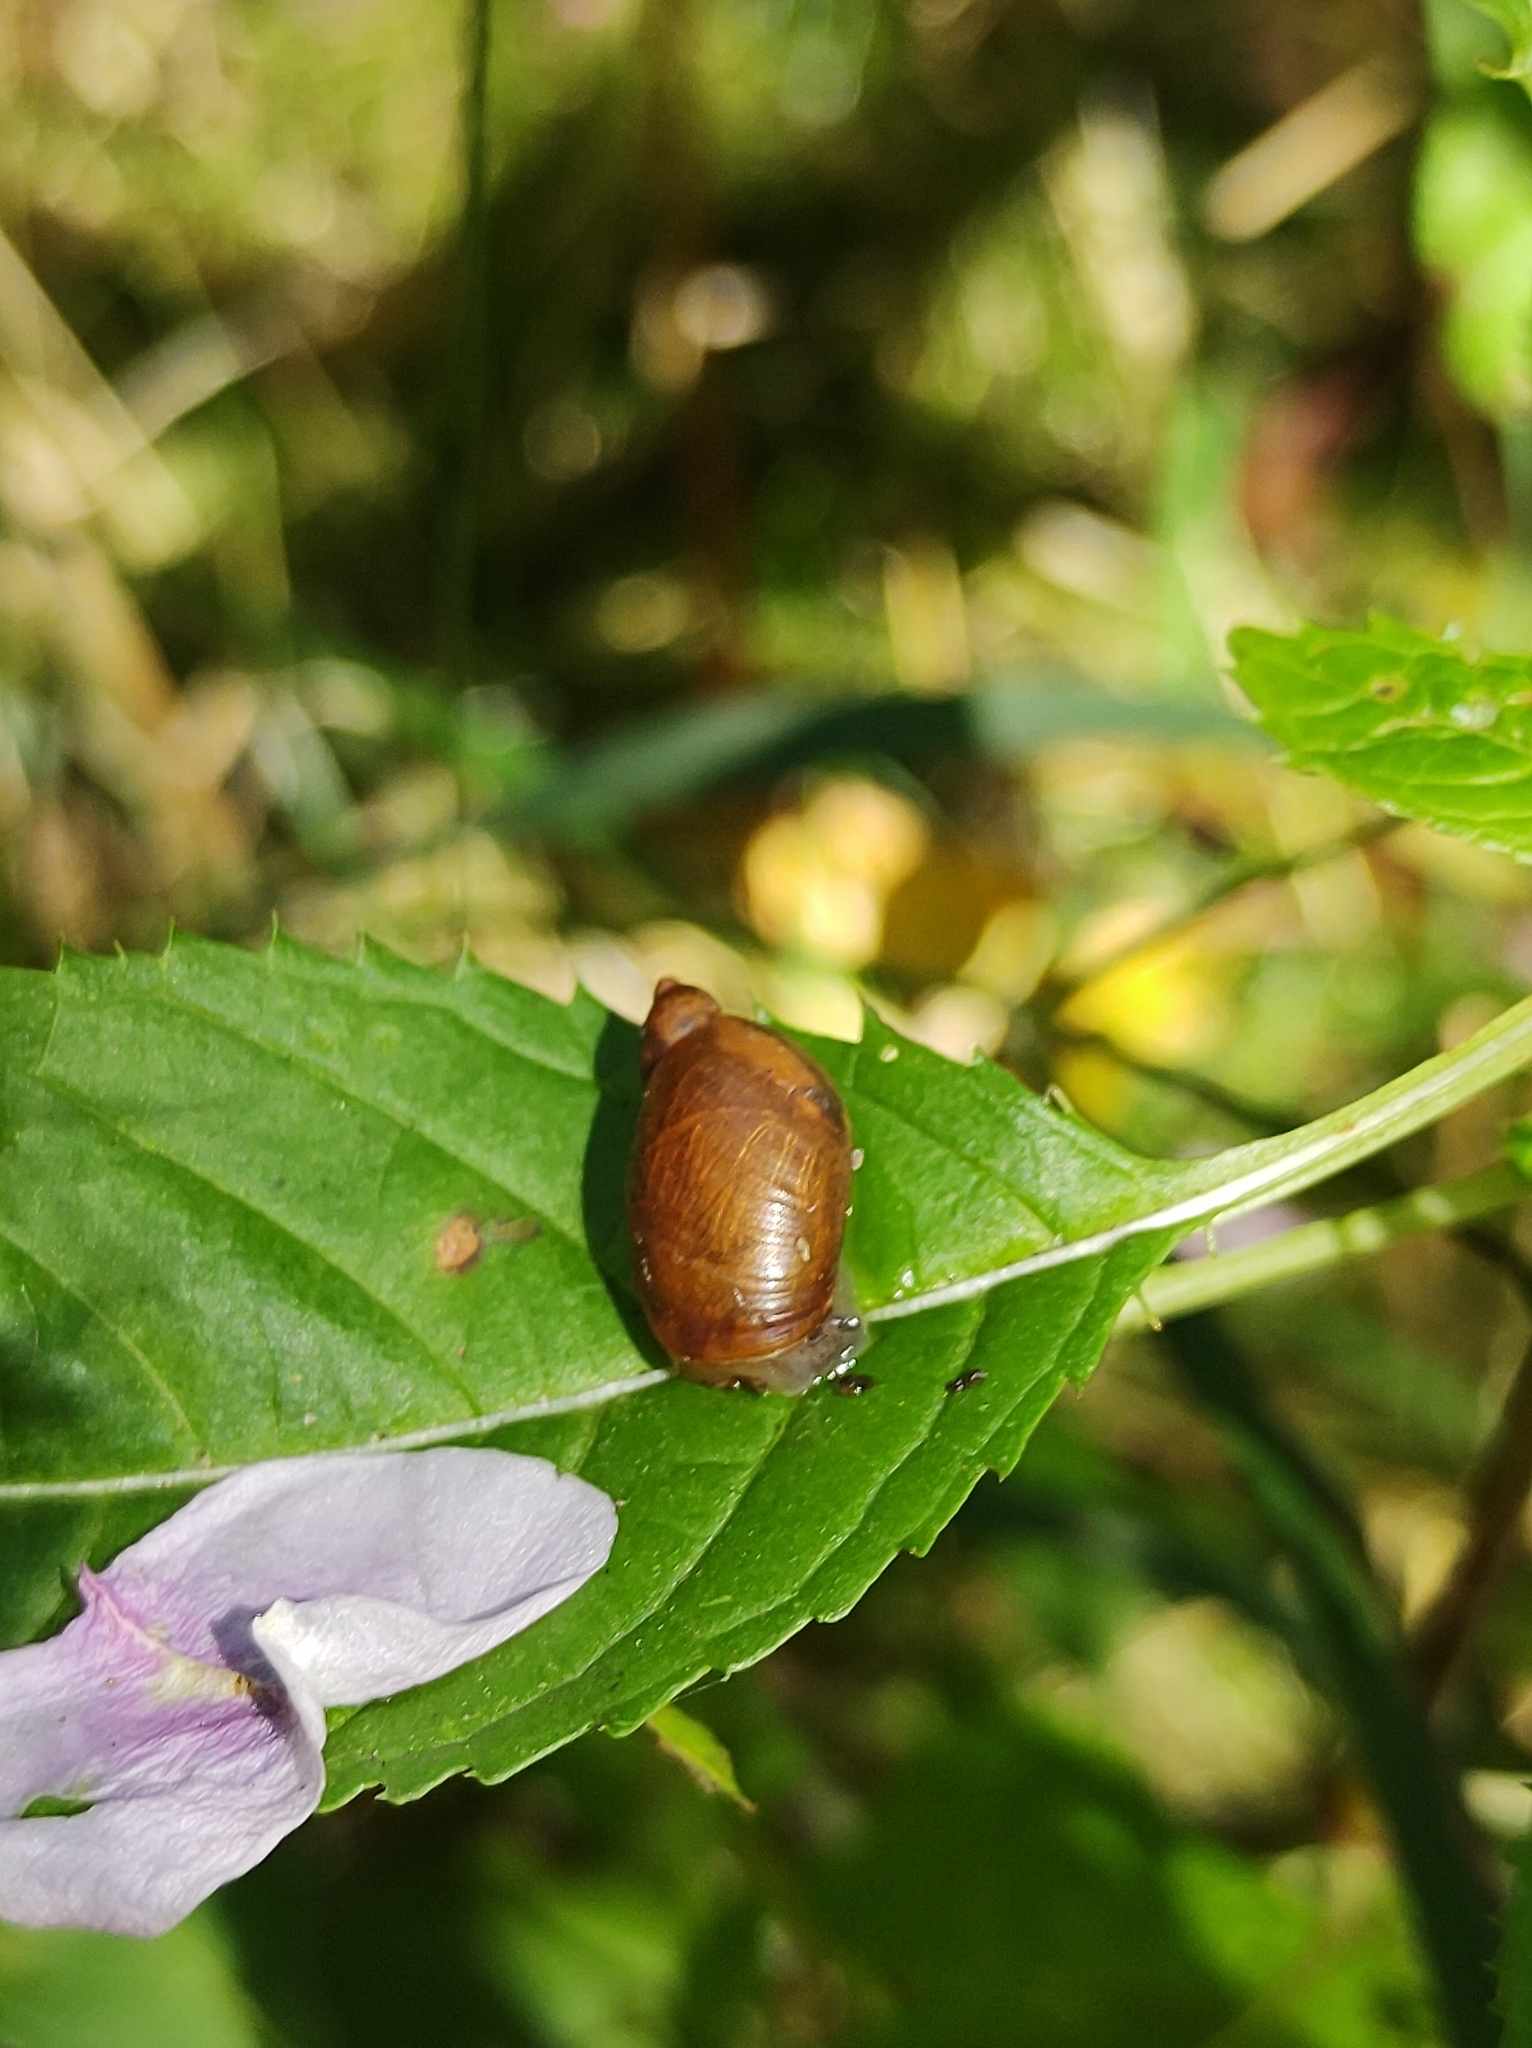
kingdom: Animalia
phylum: Mollusca
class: Gastropoda
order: Stylommatophora
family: Succineidae
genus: Succinea
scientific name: Succinea putris
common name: European ambersnail
